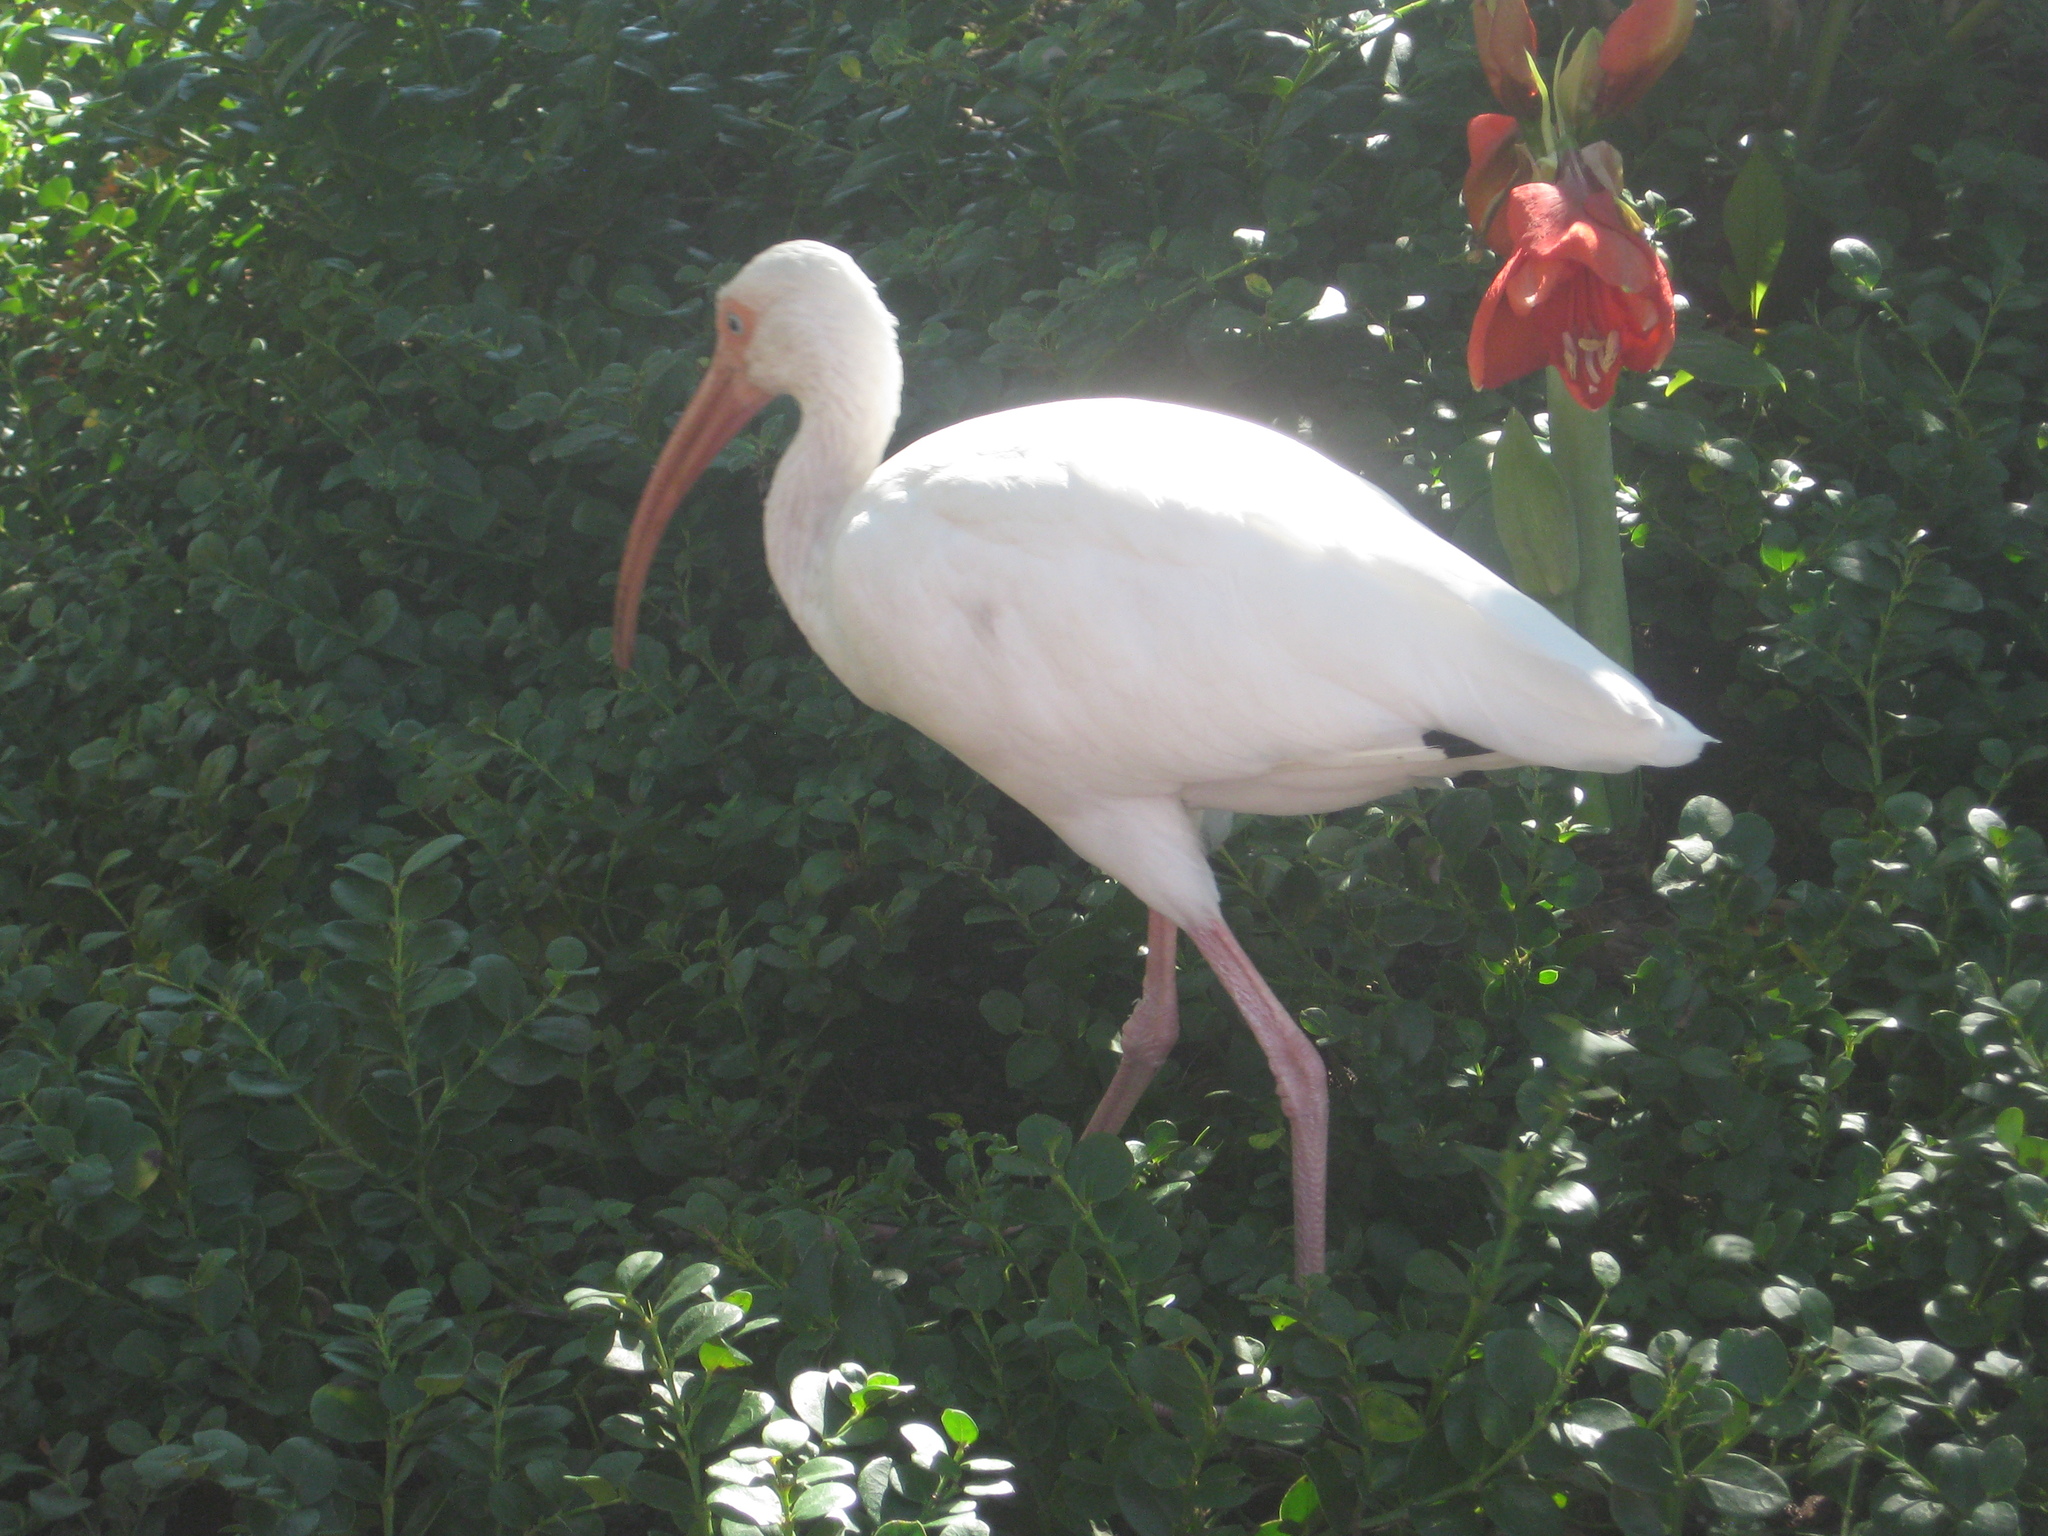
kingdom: Animalia
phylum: Chordata
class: Aves
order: Pelecaniformes
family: Threskiornithidae
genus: Eudocimus
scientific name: Eudocimus albus
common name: White ibis
